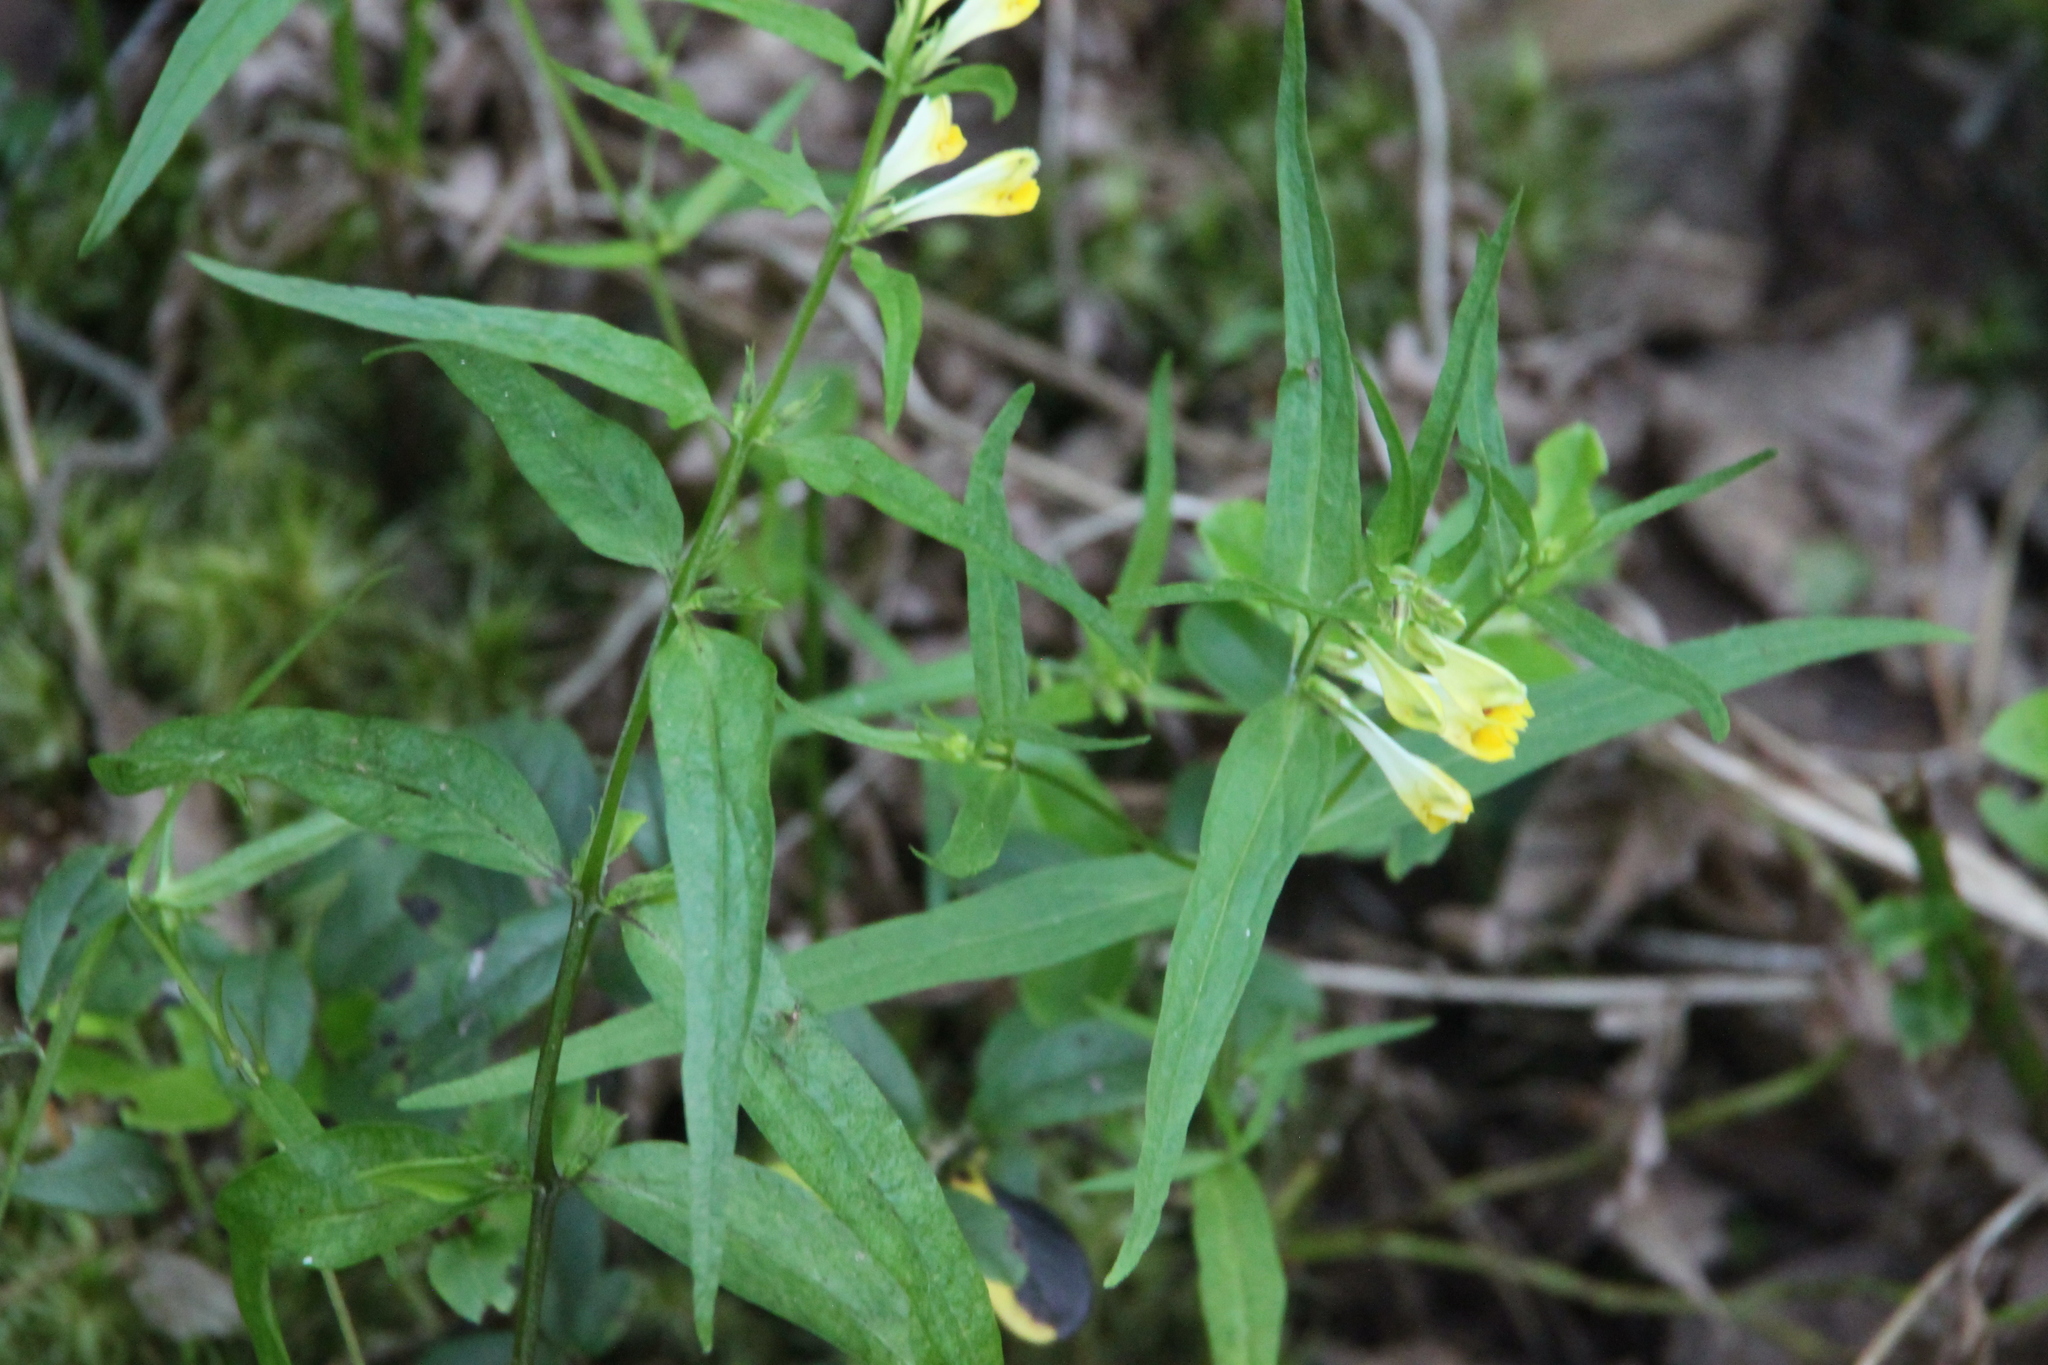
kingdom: Plantae
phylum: Tracheophyta
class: Magnoliopsida
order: Lamiales
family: Orobanchaceae
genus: Melampyrum
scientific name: Melampyrum pratense
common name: Common cow-wheat
